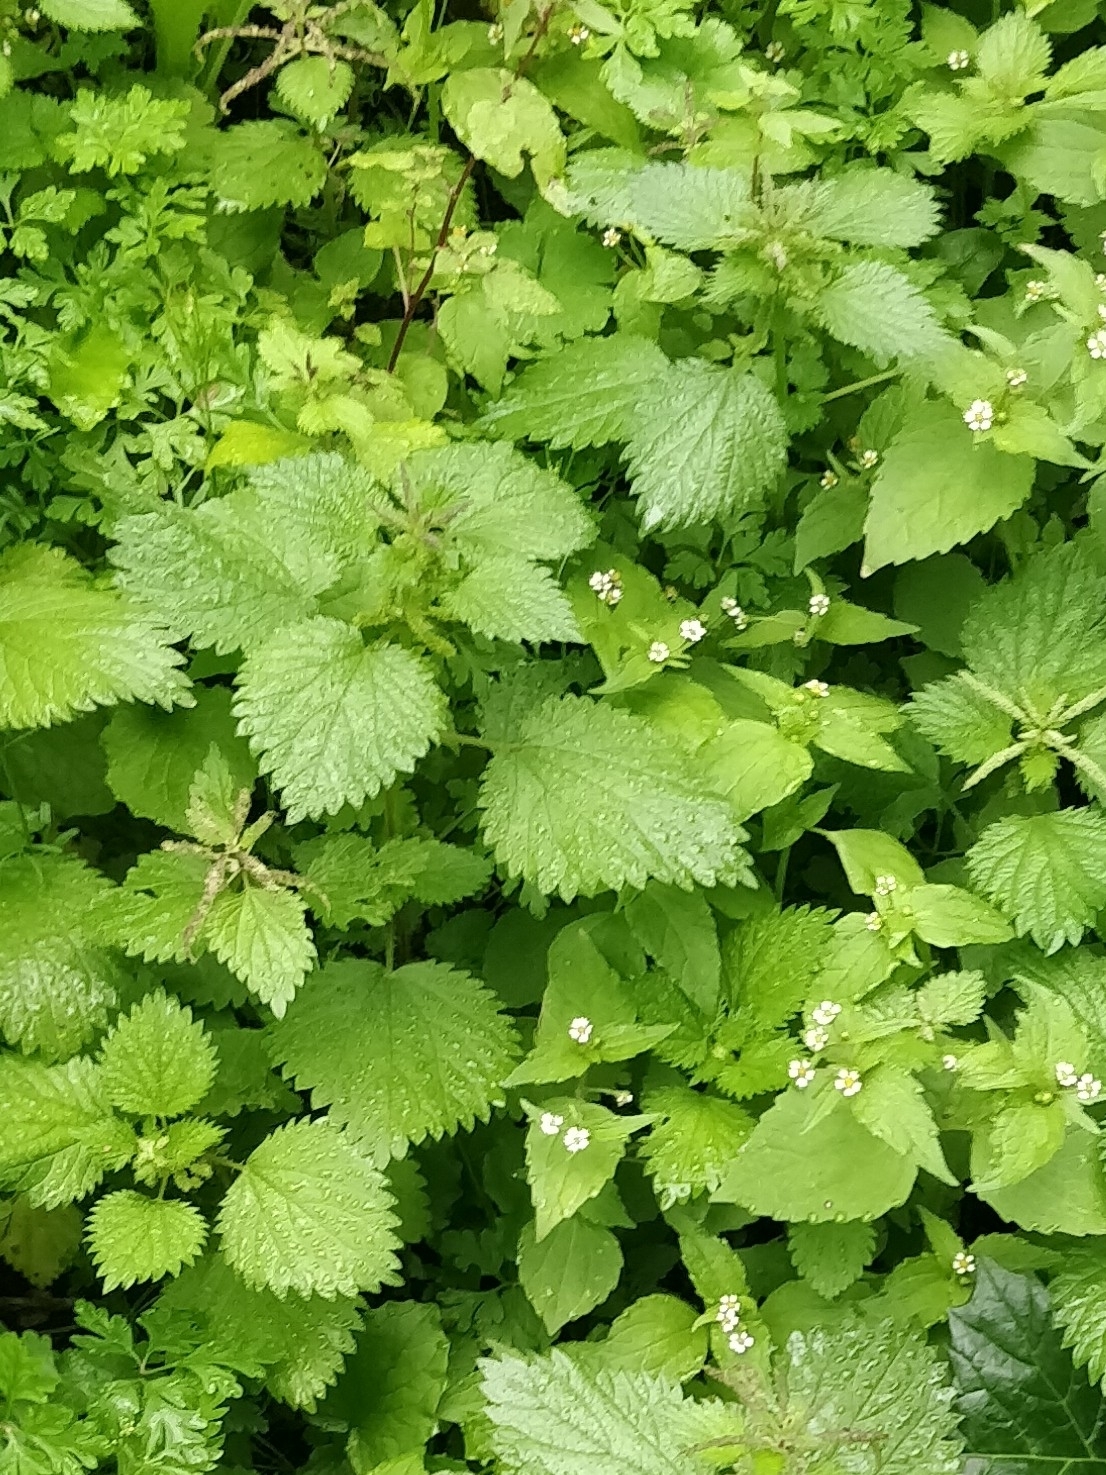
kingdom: Plantae
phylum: Tracheophyta
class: Magnoliopsida
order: Rosales
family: Urticaceae
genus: Urtica
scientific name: Urtica membranacea
